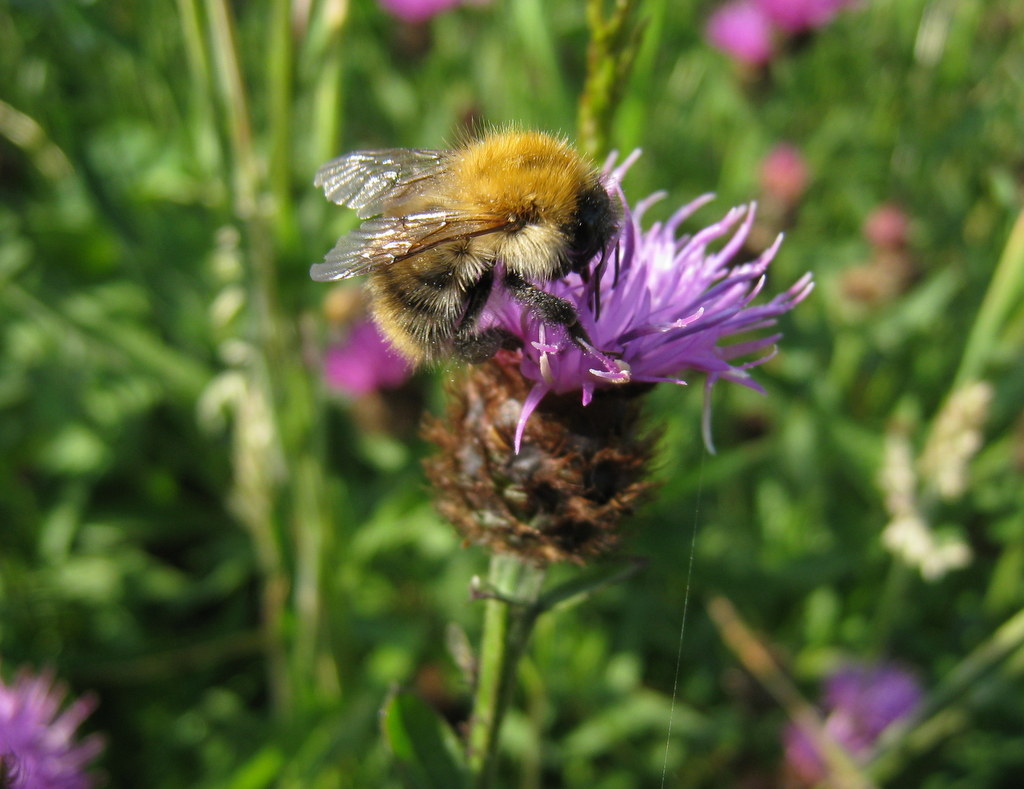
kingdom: Animalia
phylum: Arthropoda
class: Insecta
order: Hymenoptera
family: Apidae
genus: Bombus
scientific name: Bombus pascuorum
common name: Common carder bee
